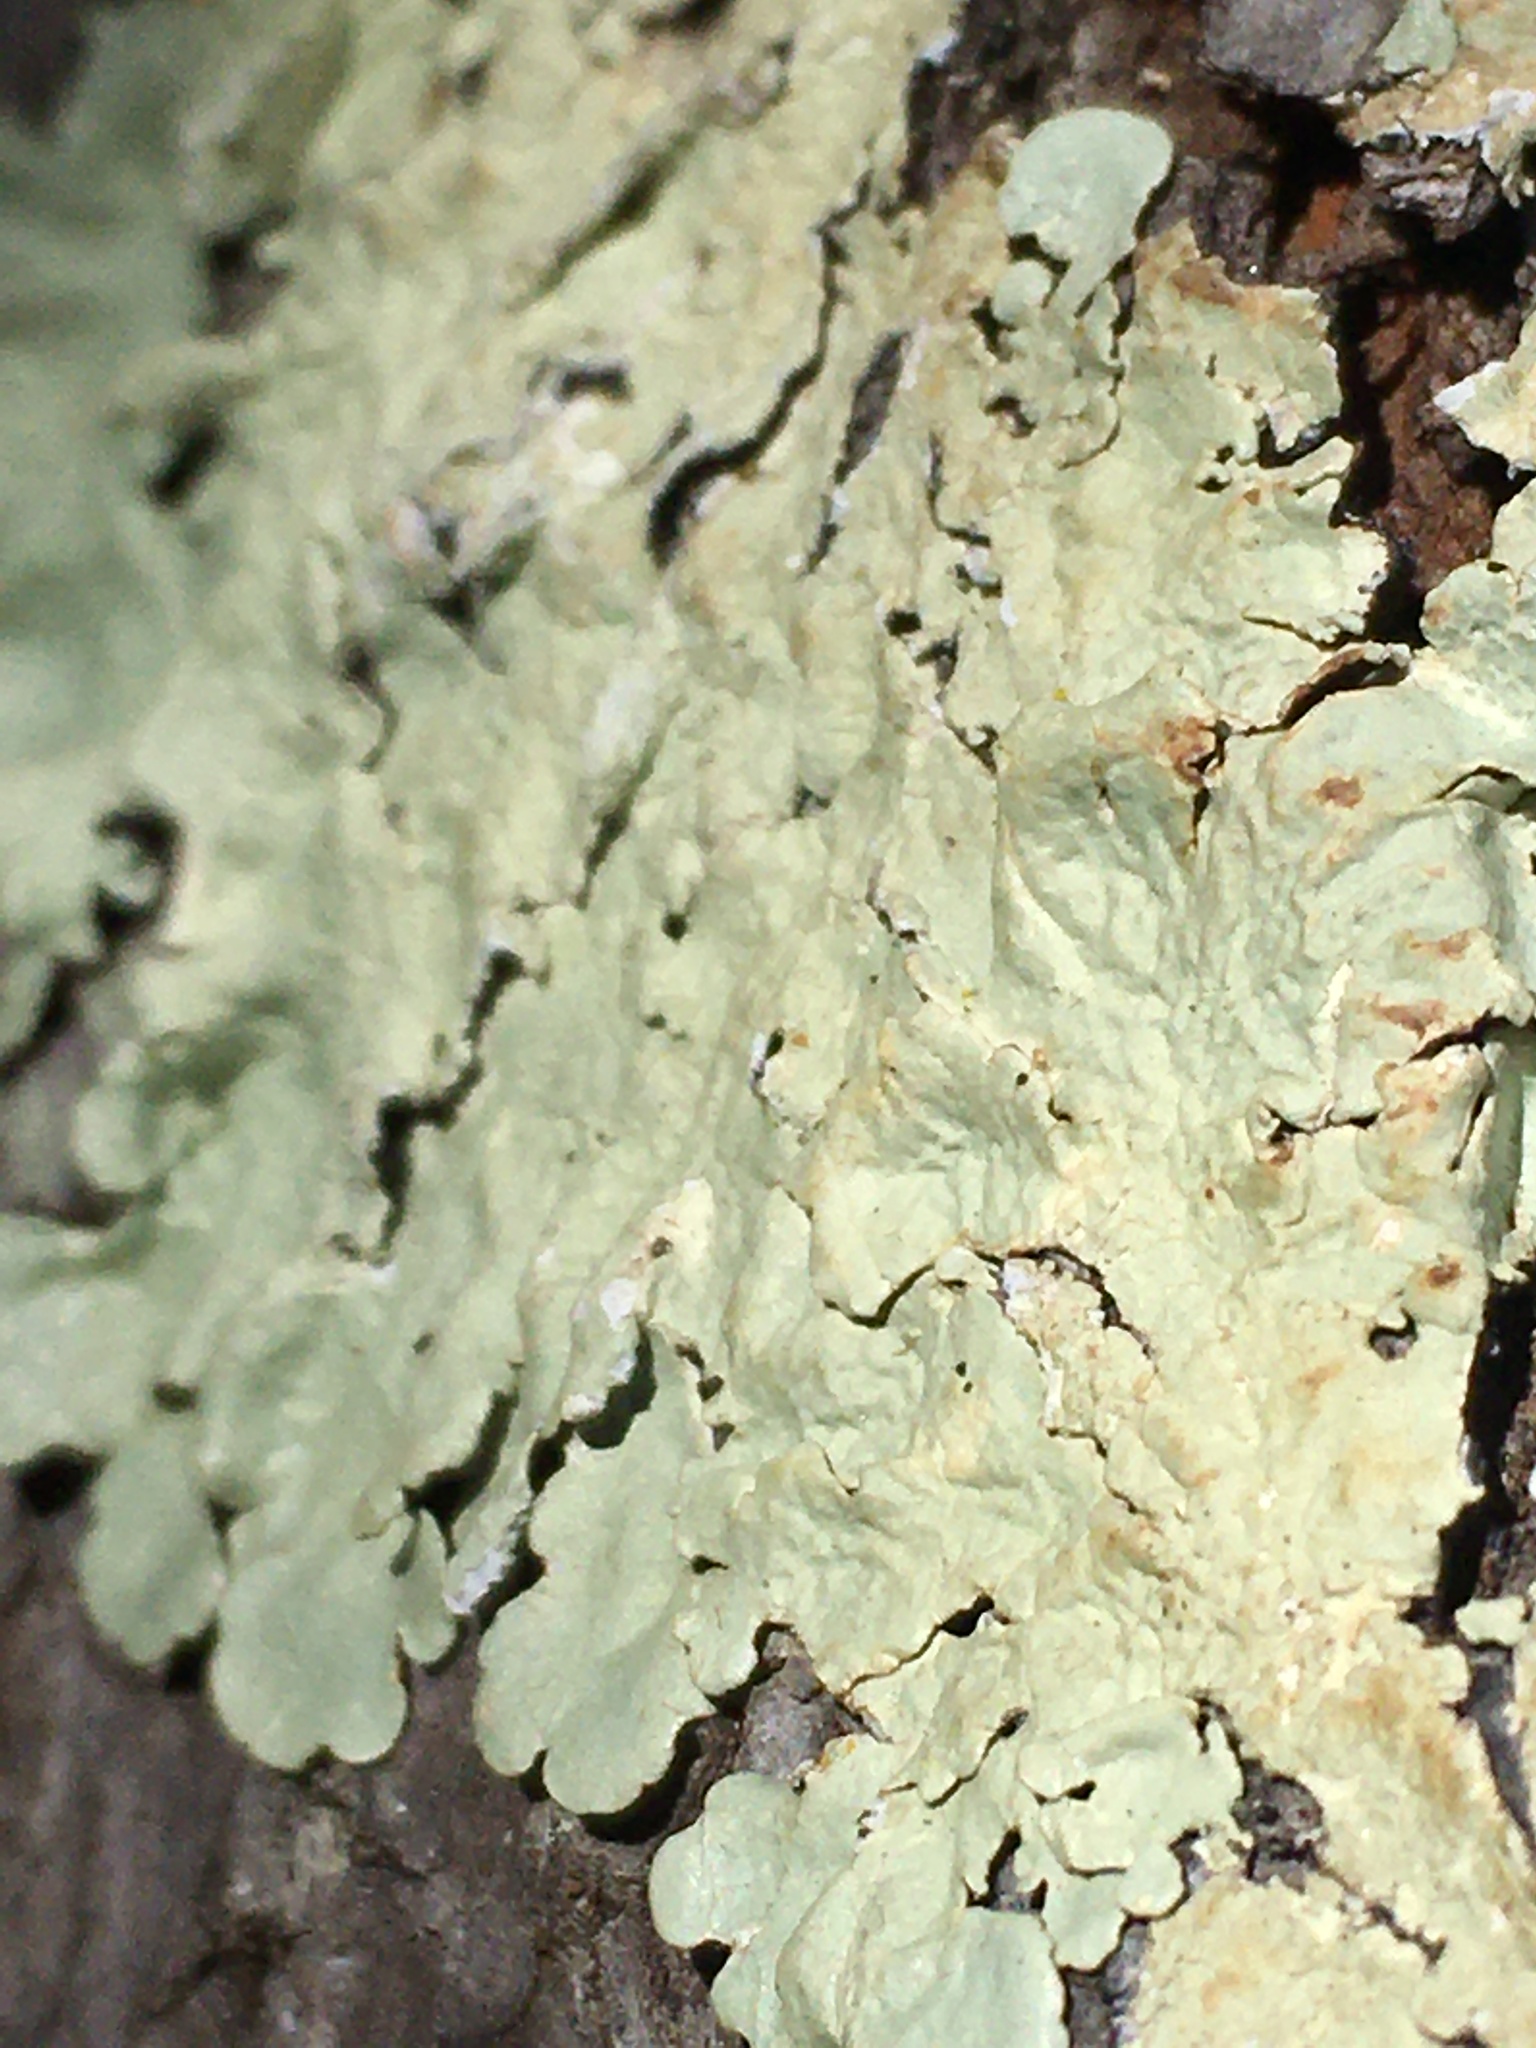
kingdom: Fungi
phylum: Ascomycota
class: Lecanoromycetes
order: Lecanorales
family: Parmeliaceae
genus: Flavoparmelia
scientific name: Flavoparmelia caperata
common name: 40-mile per hour lichen
